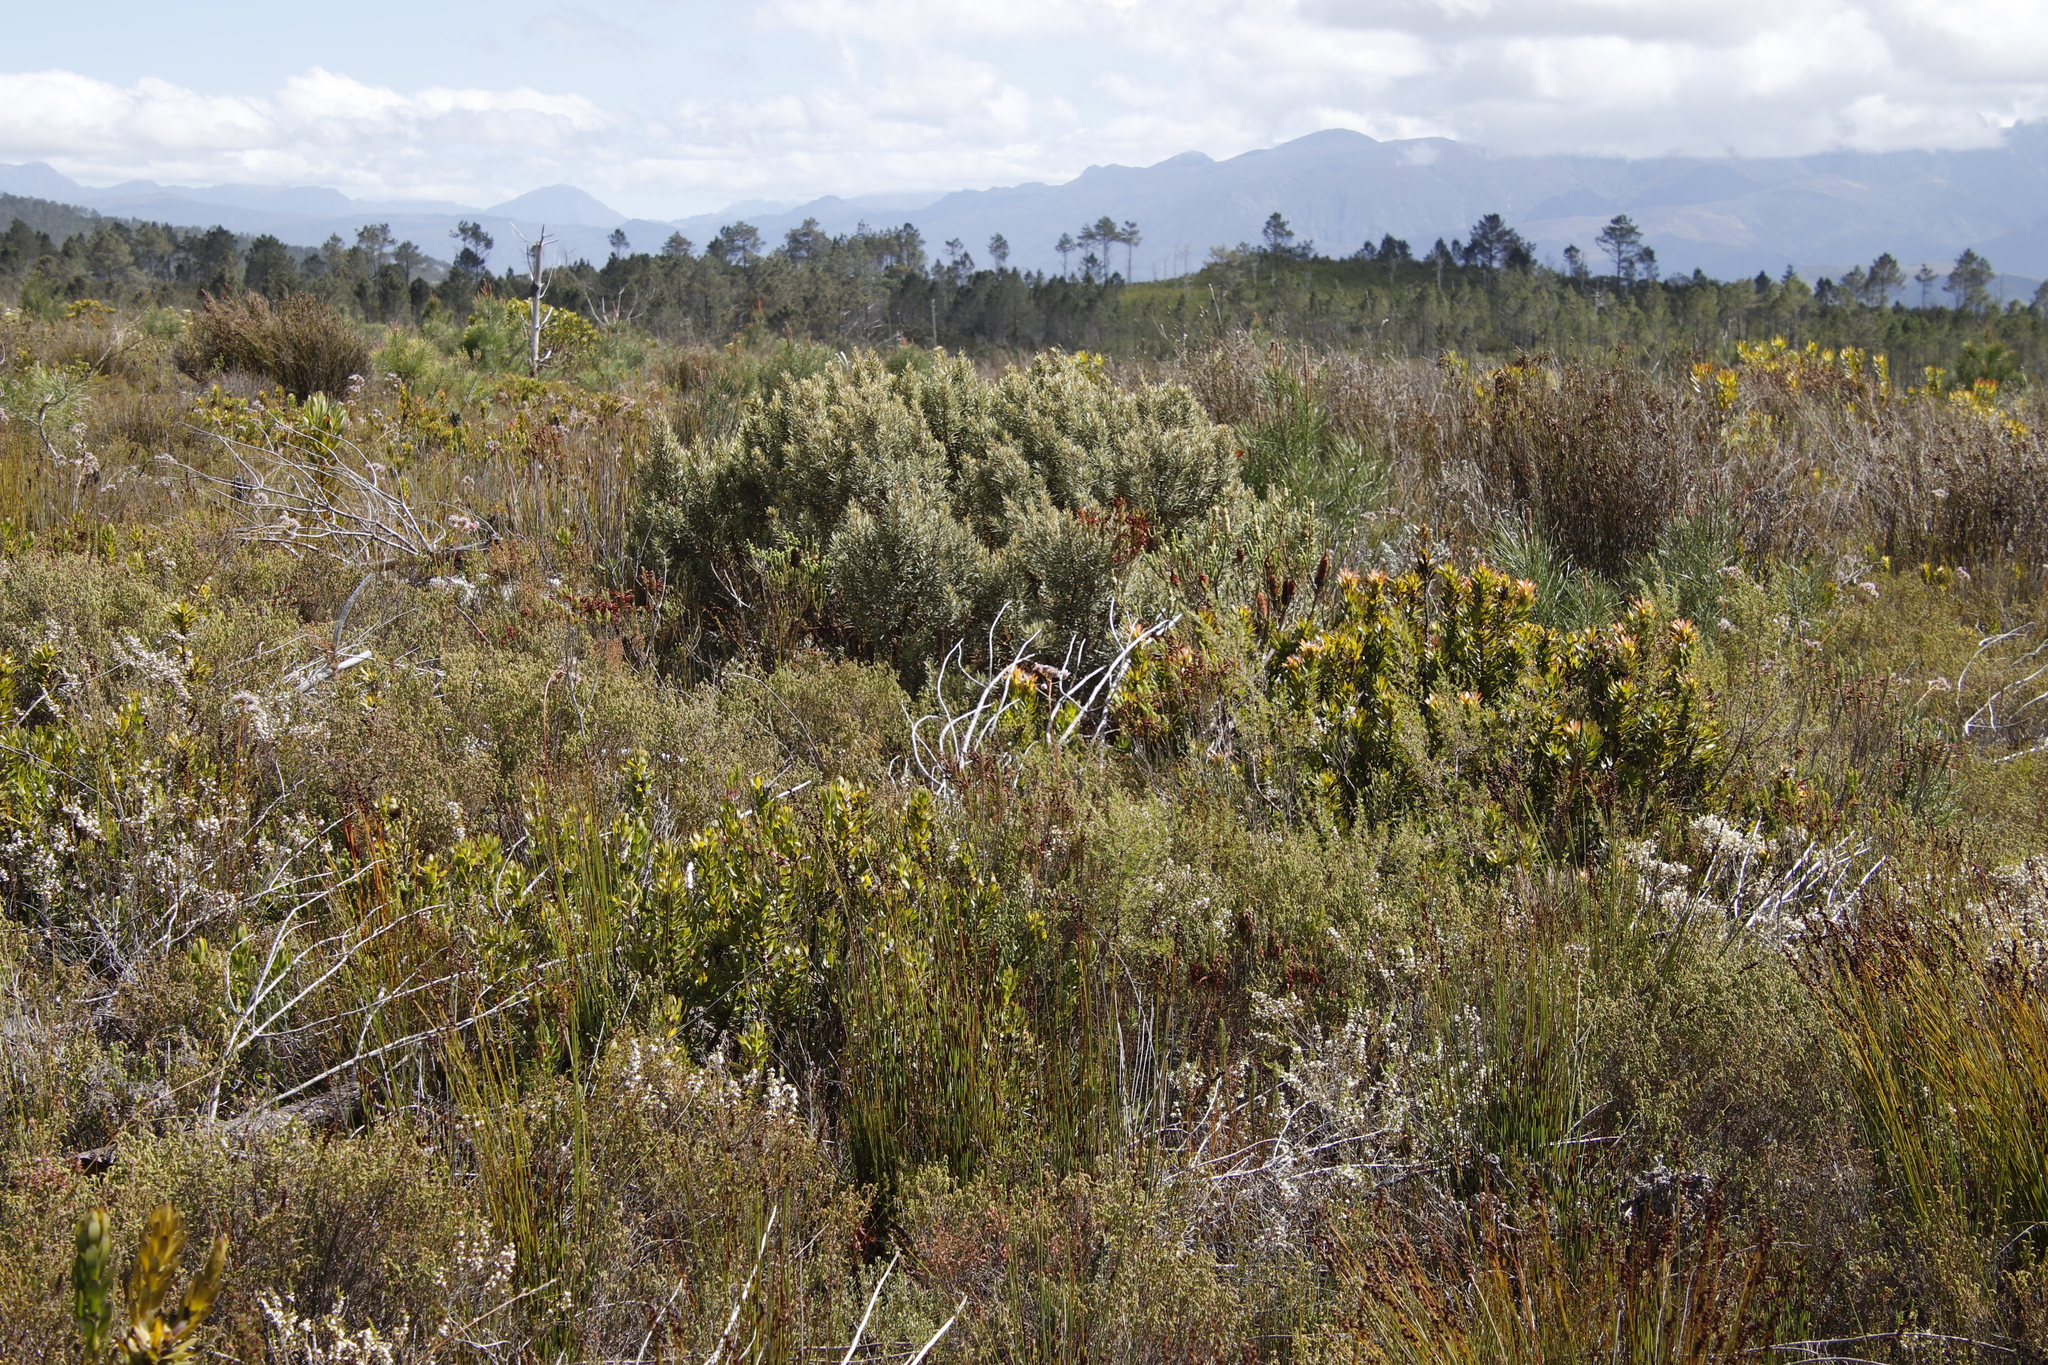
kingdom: Plantae
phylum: Tracheophyta
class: Magnoliopsida
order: Cornales
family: Grubbiaceae
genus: Grubbia
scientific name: Grubbia tomentosa
